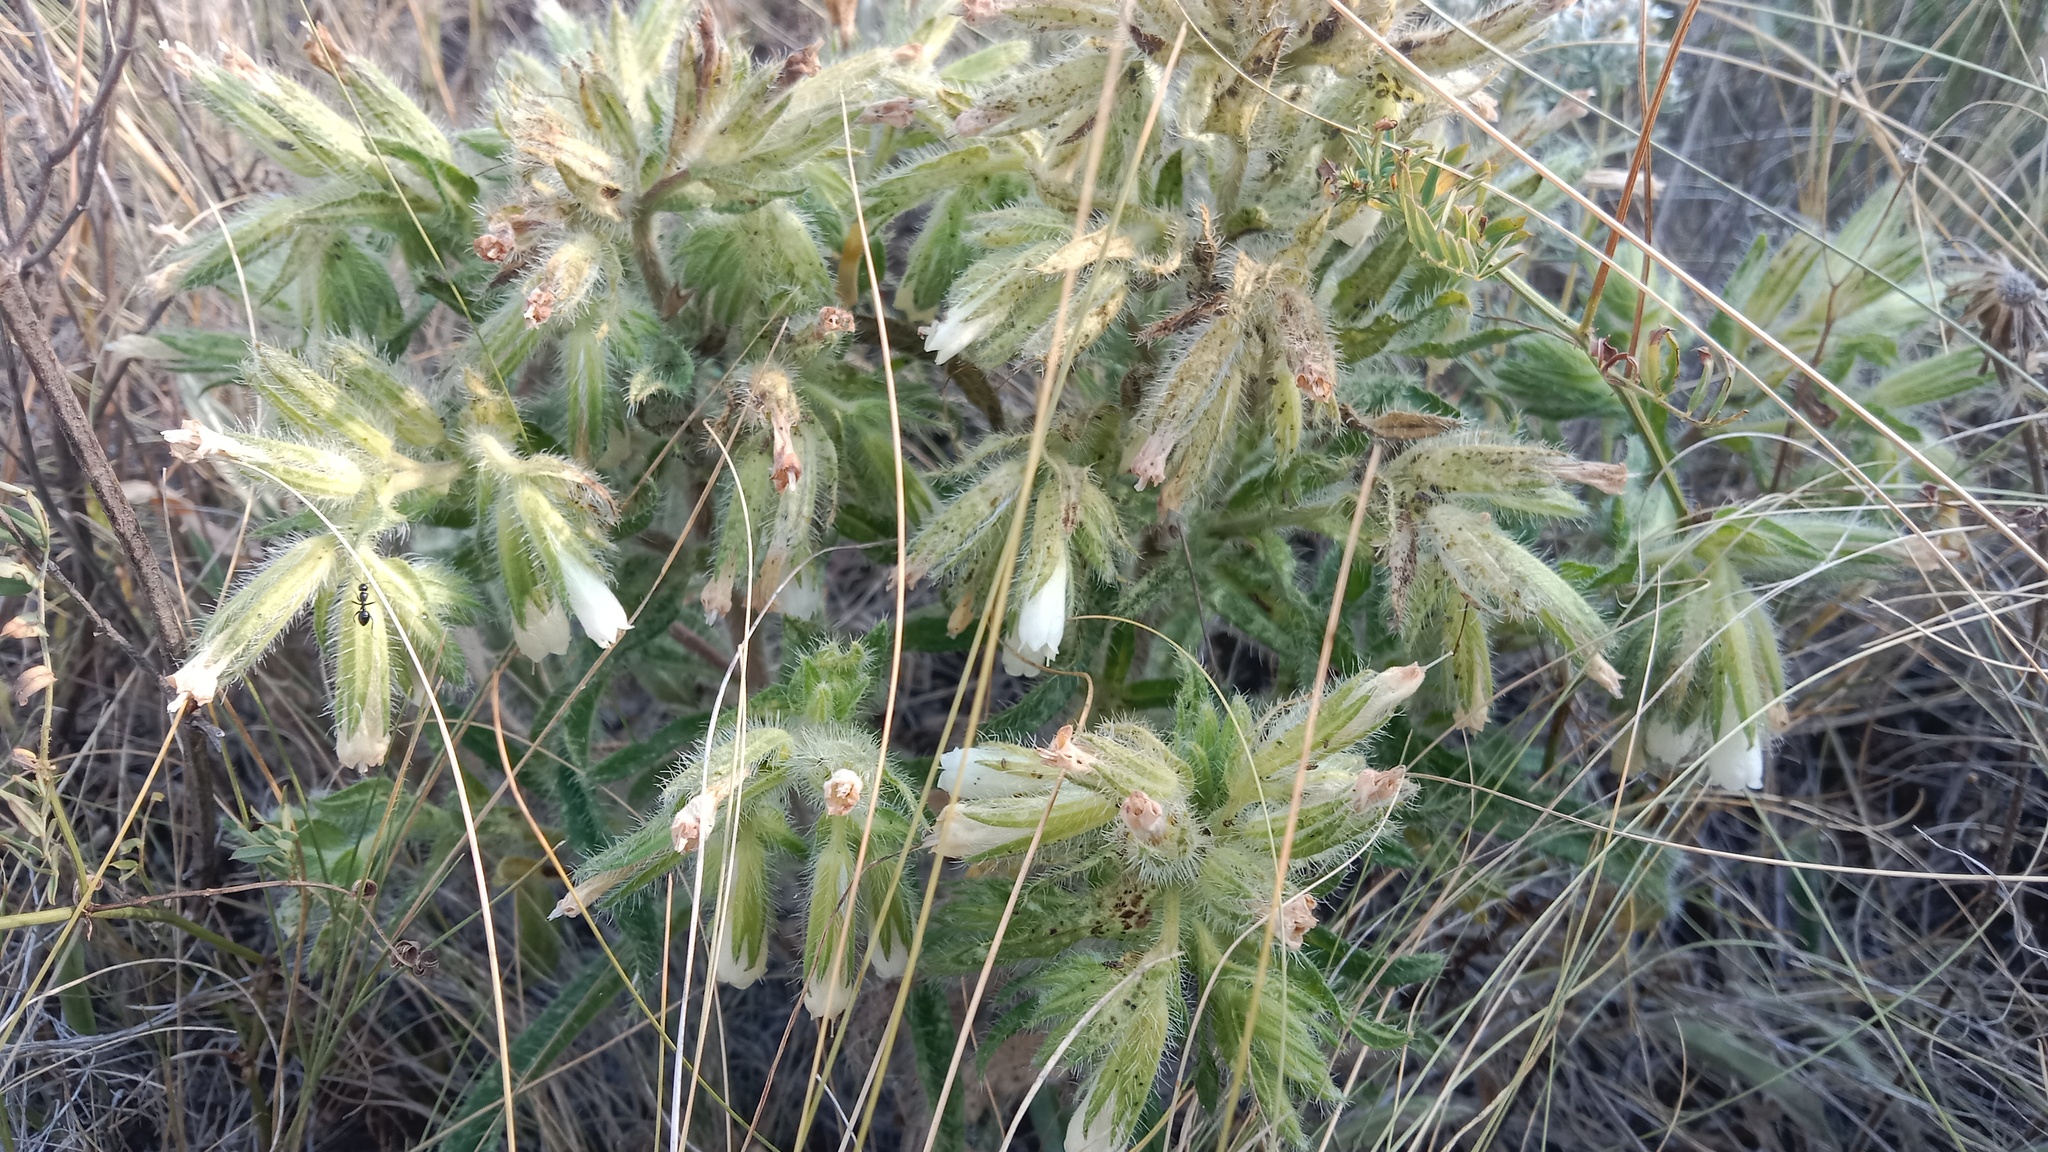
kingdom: Plantae
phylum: Tracheophyta
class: Magnoliopsida
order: Boraginales
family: Boraginaceae
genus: Onosma
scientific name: Onosma visianii
